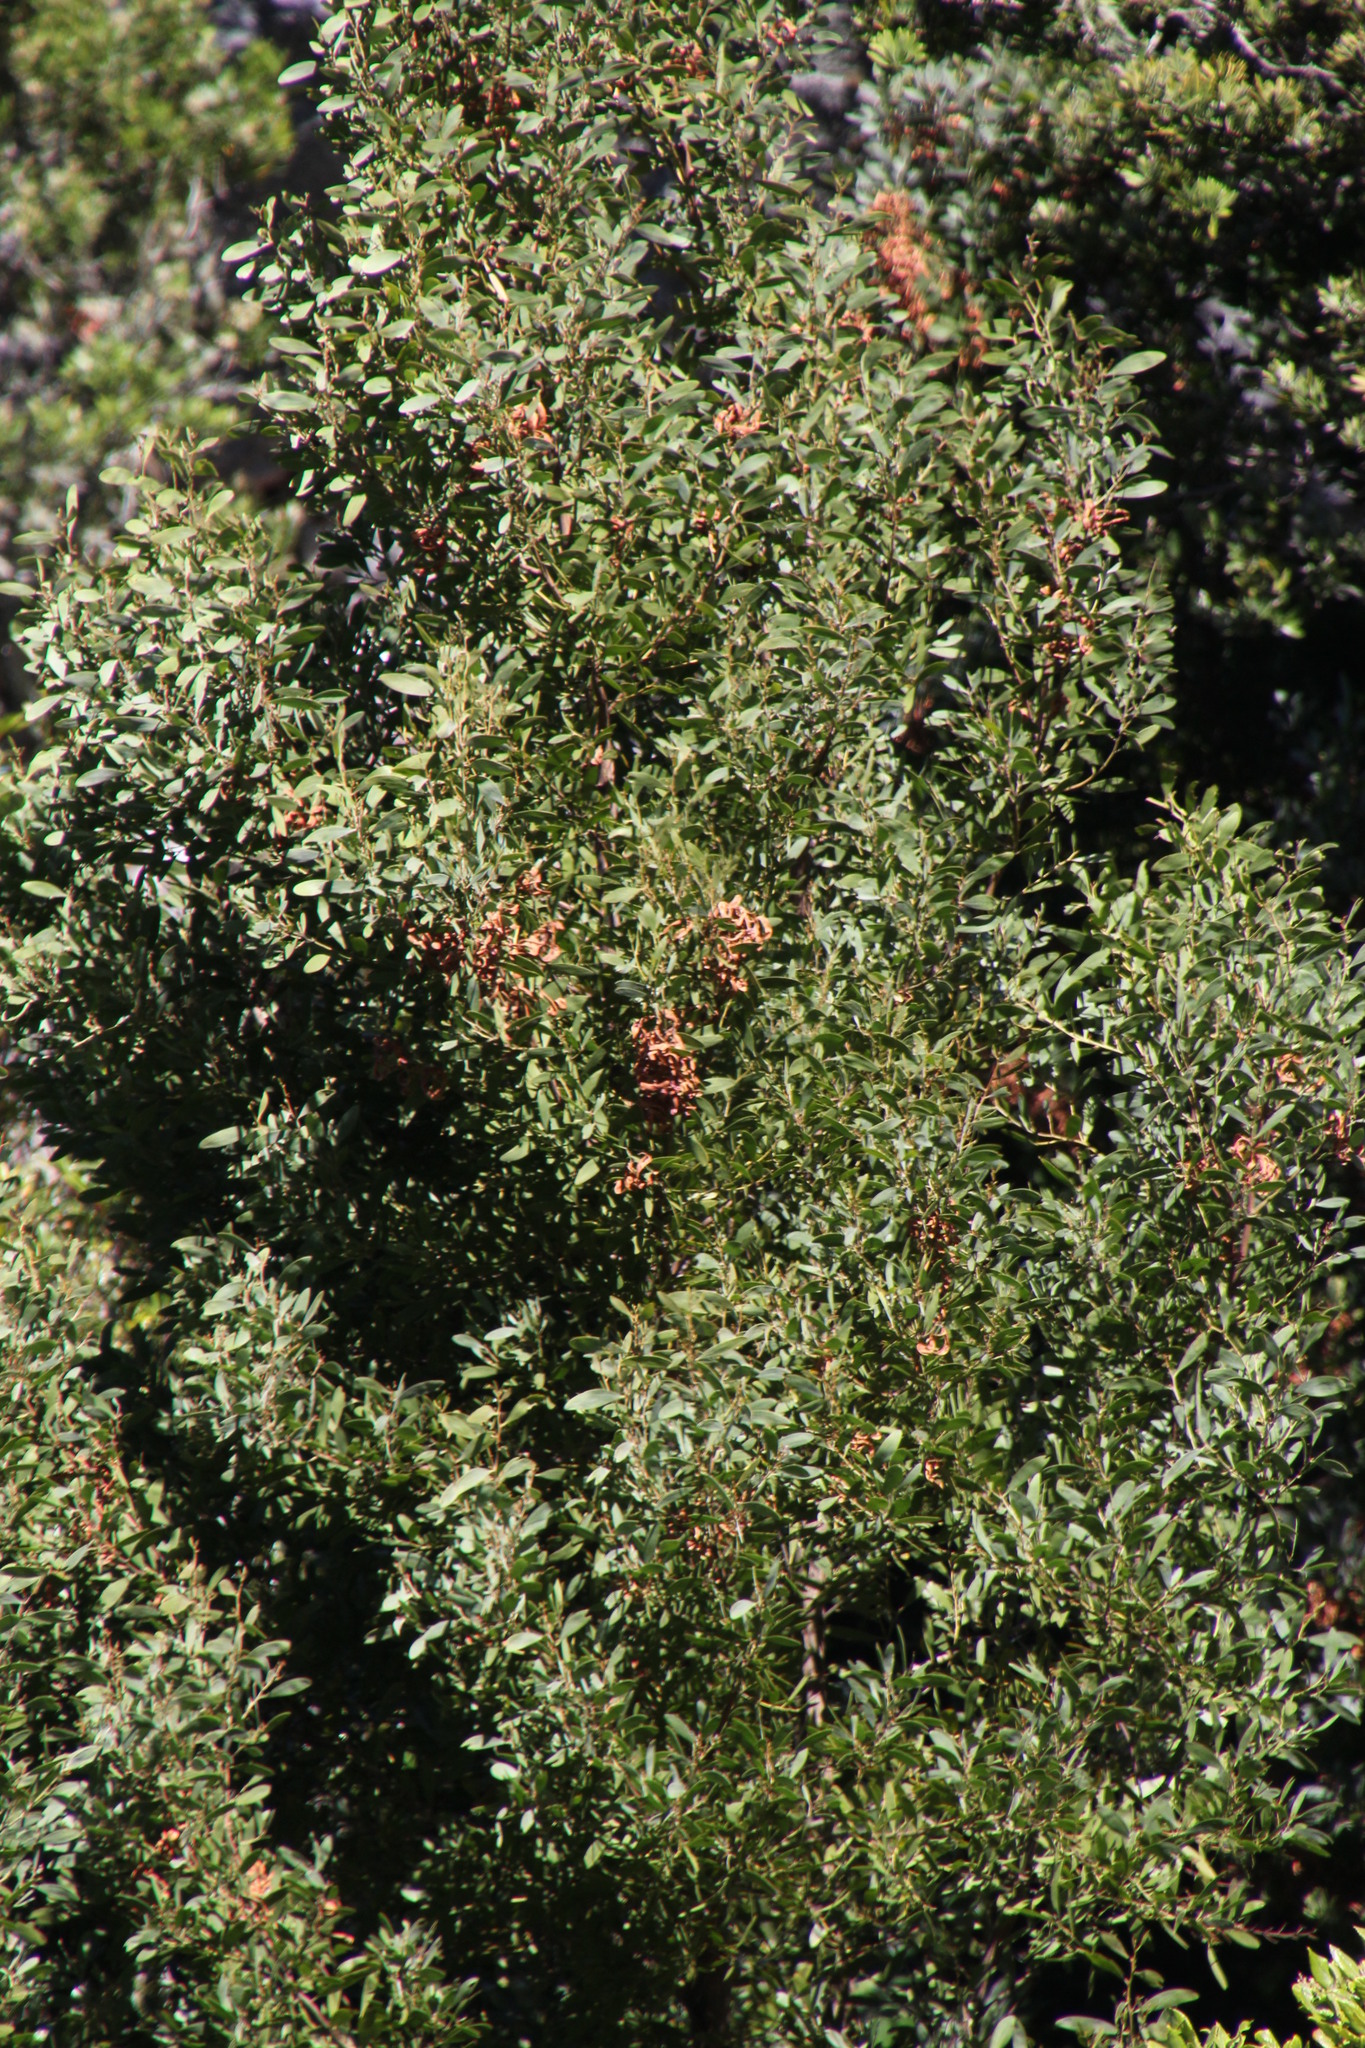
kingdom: Plantae
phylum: Tracheophyta
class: Magnoliopsida
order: Fabales
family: Fabaceae
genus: Acacia
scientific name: Acacia melanoxylon
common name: Blackwood
